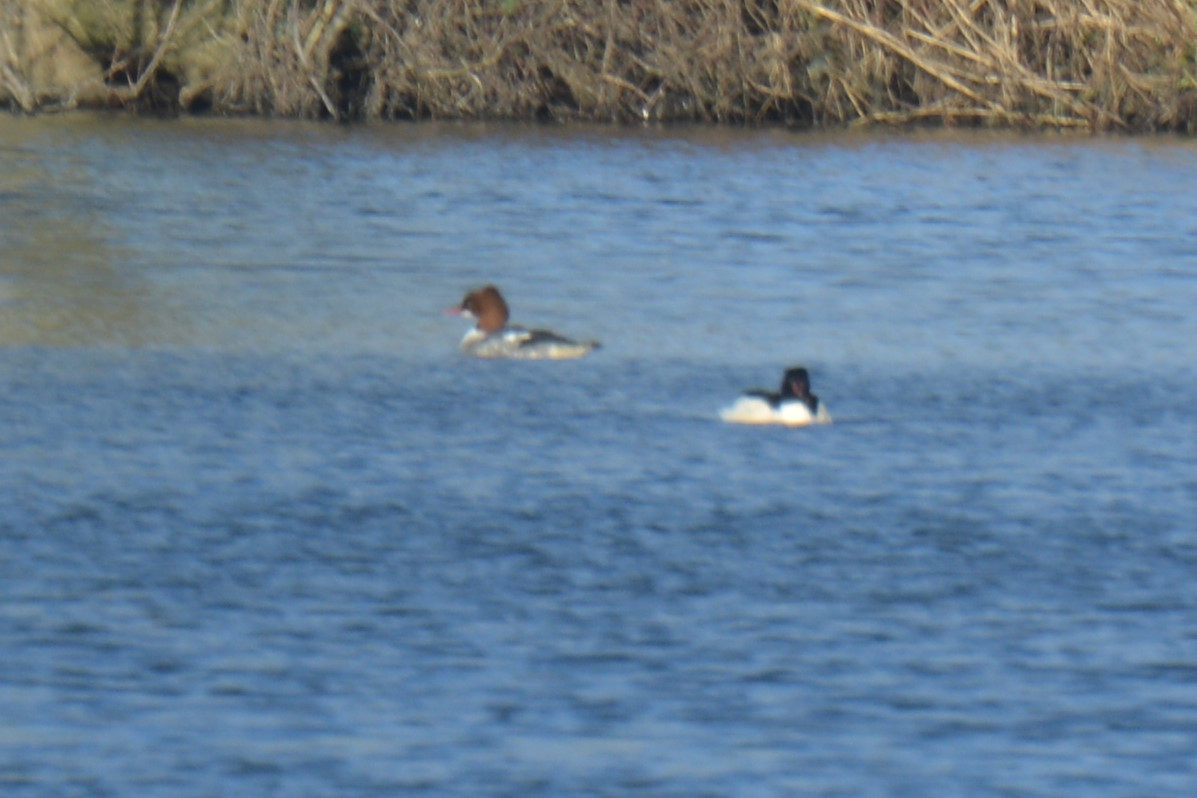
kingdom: Animalia
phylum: Chordata
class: Aves
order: Anseriformes
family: Anatidae
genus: Mergus
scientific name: Mergus merganser
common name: Common merganser
